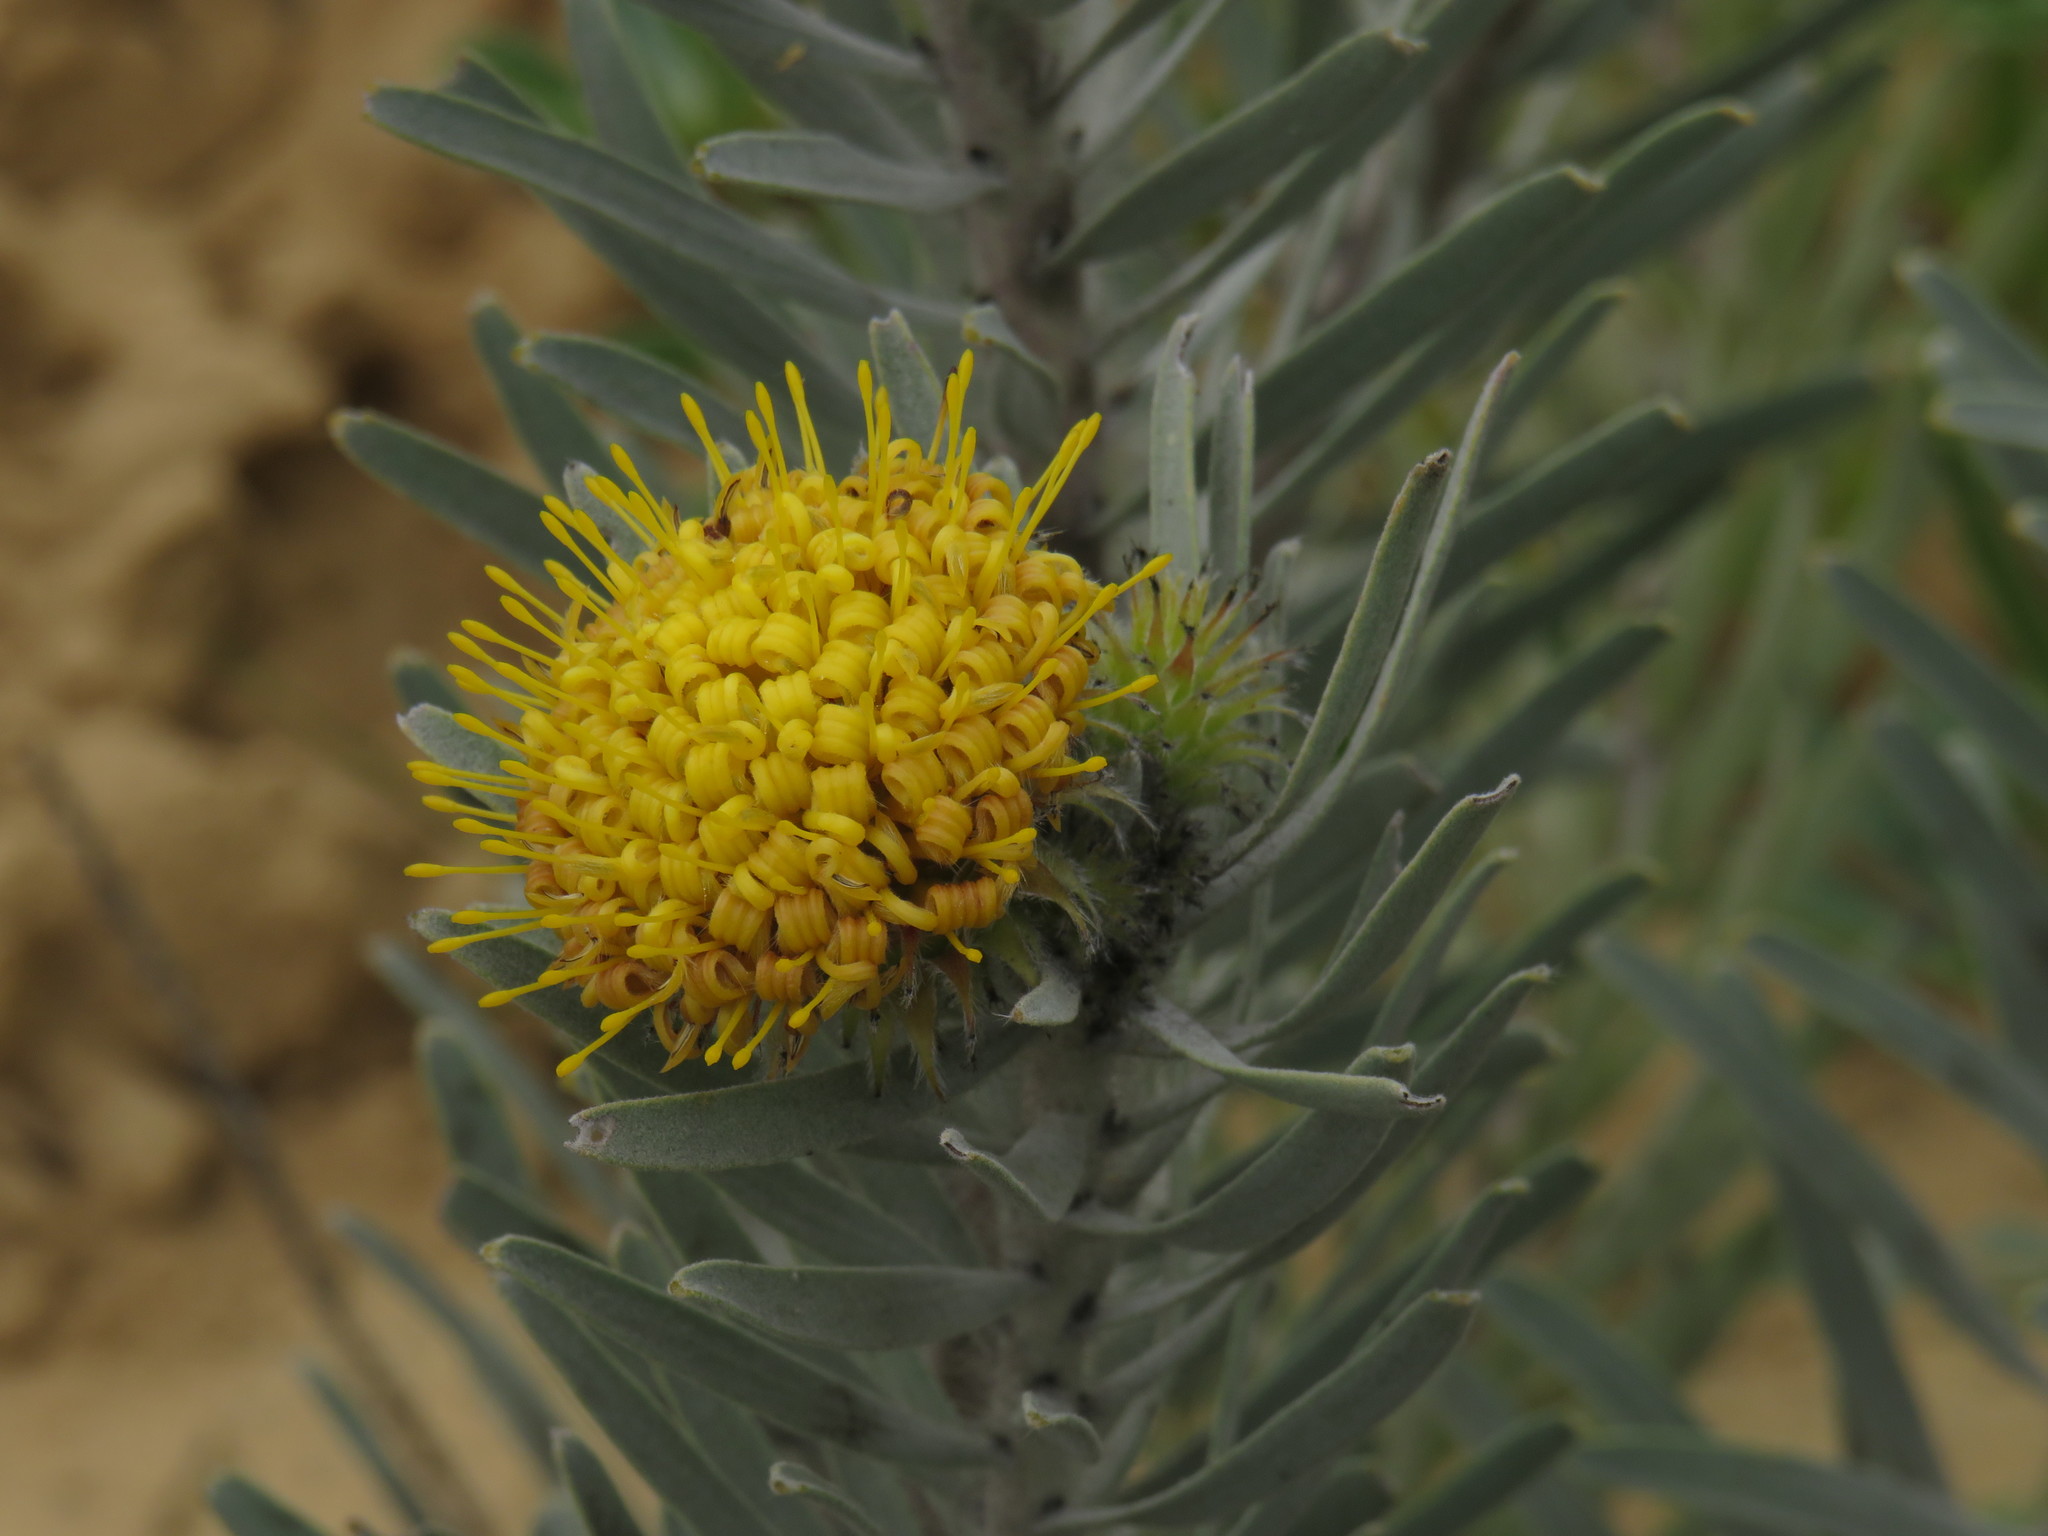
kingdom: Plantae
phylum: Tracheophyta
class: Magnoliopsida
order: Proteales
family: Proteaceae
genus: Leucospermum
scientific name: Leucospermum parile
